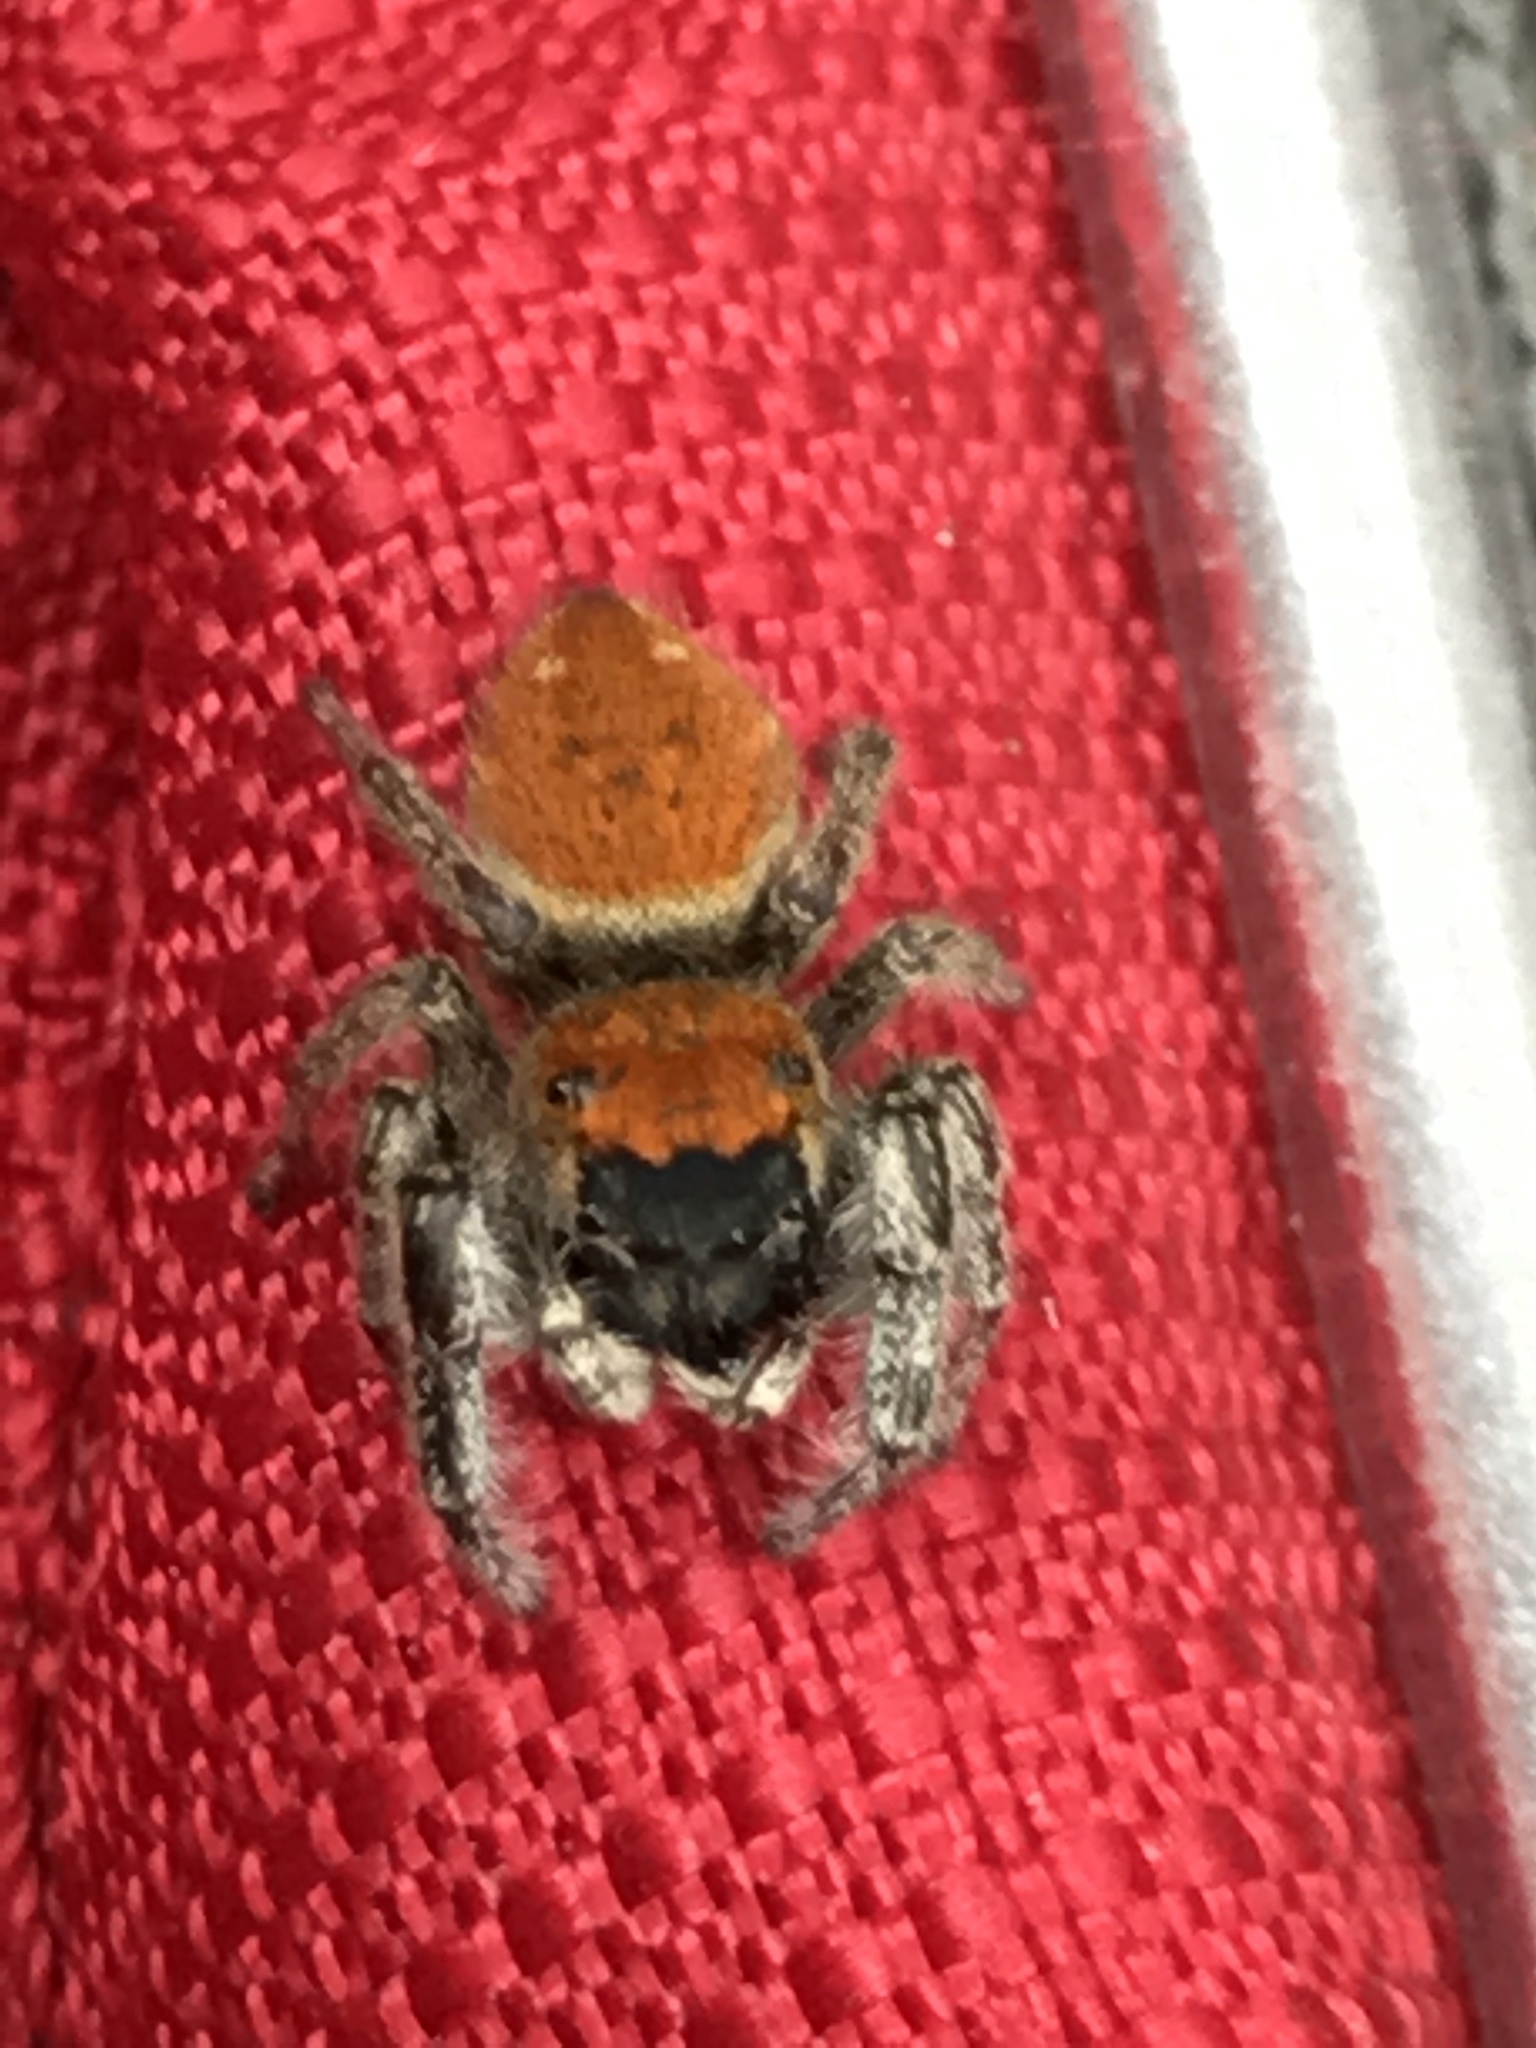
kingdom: Animalia
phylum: Arthropoda
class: Arachnida
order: Araneae
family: Salticidae
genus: Phidippus
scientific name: Phidippus whitmani
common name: Whitman's jumping spider
